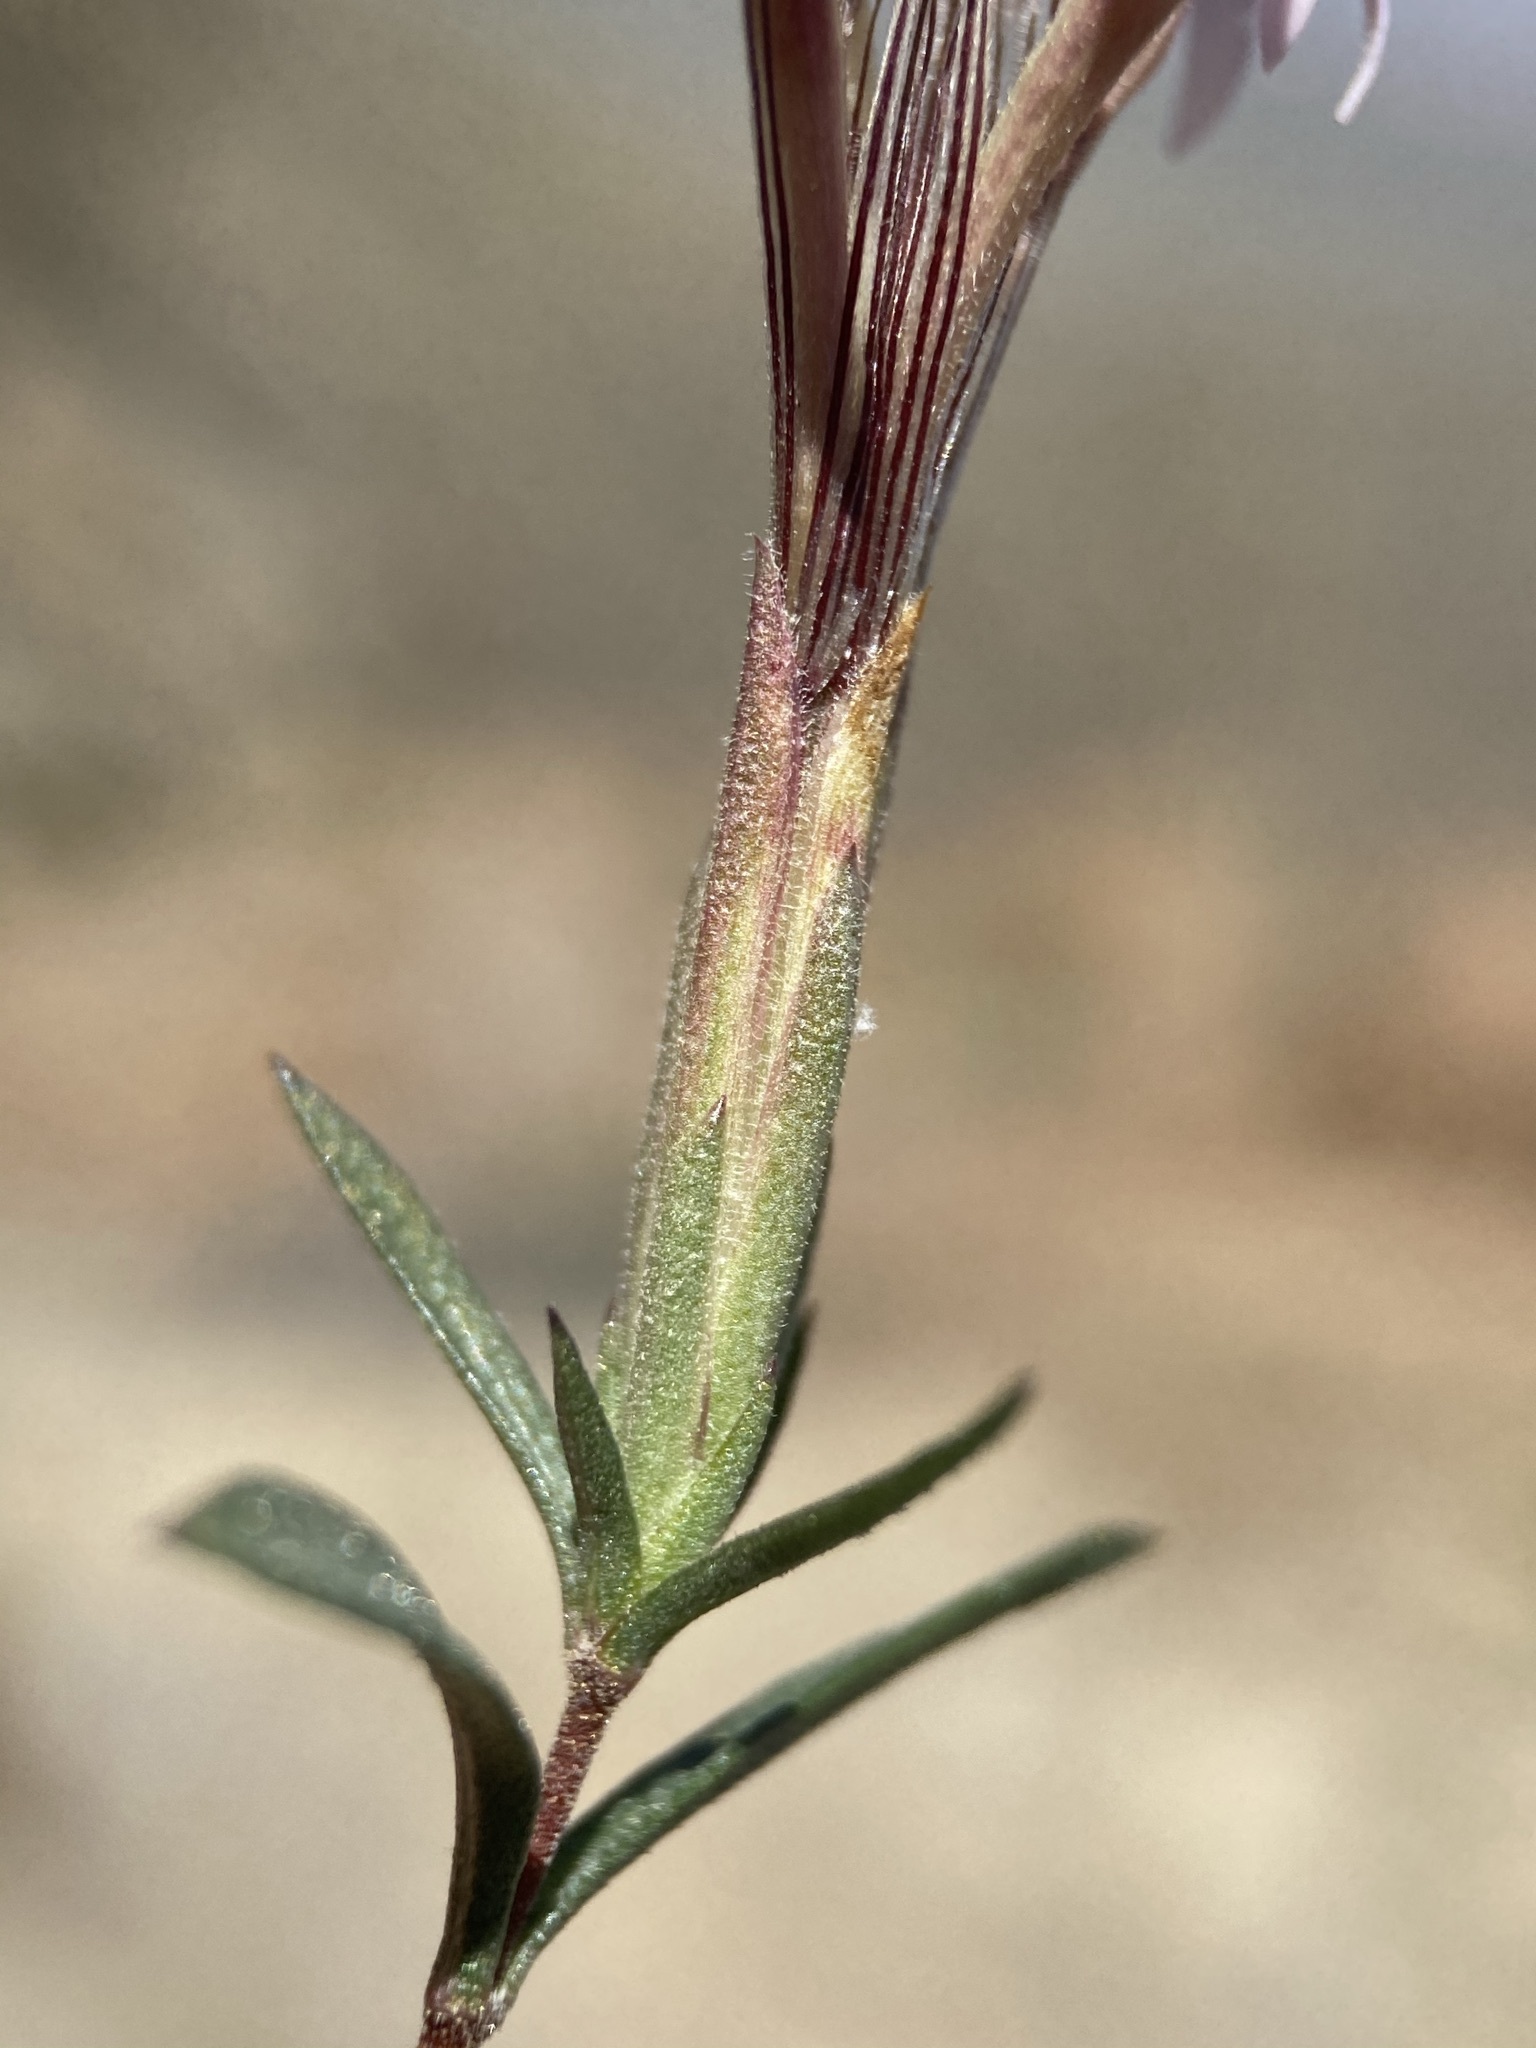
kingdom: Plantae
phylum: Tracheophyta
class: Magnoliopsida
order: Asterales
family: Asteraceae
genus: Carphochaete
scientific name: Carphochaete bigelovii
